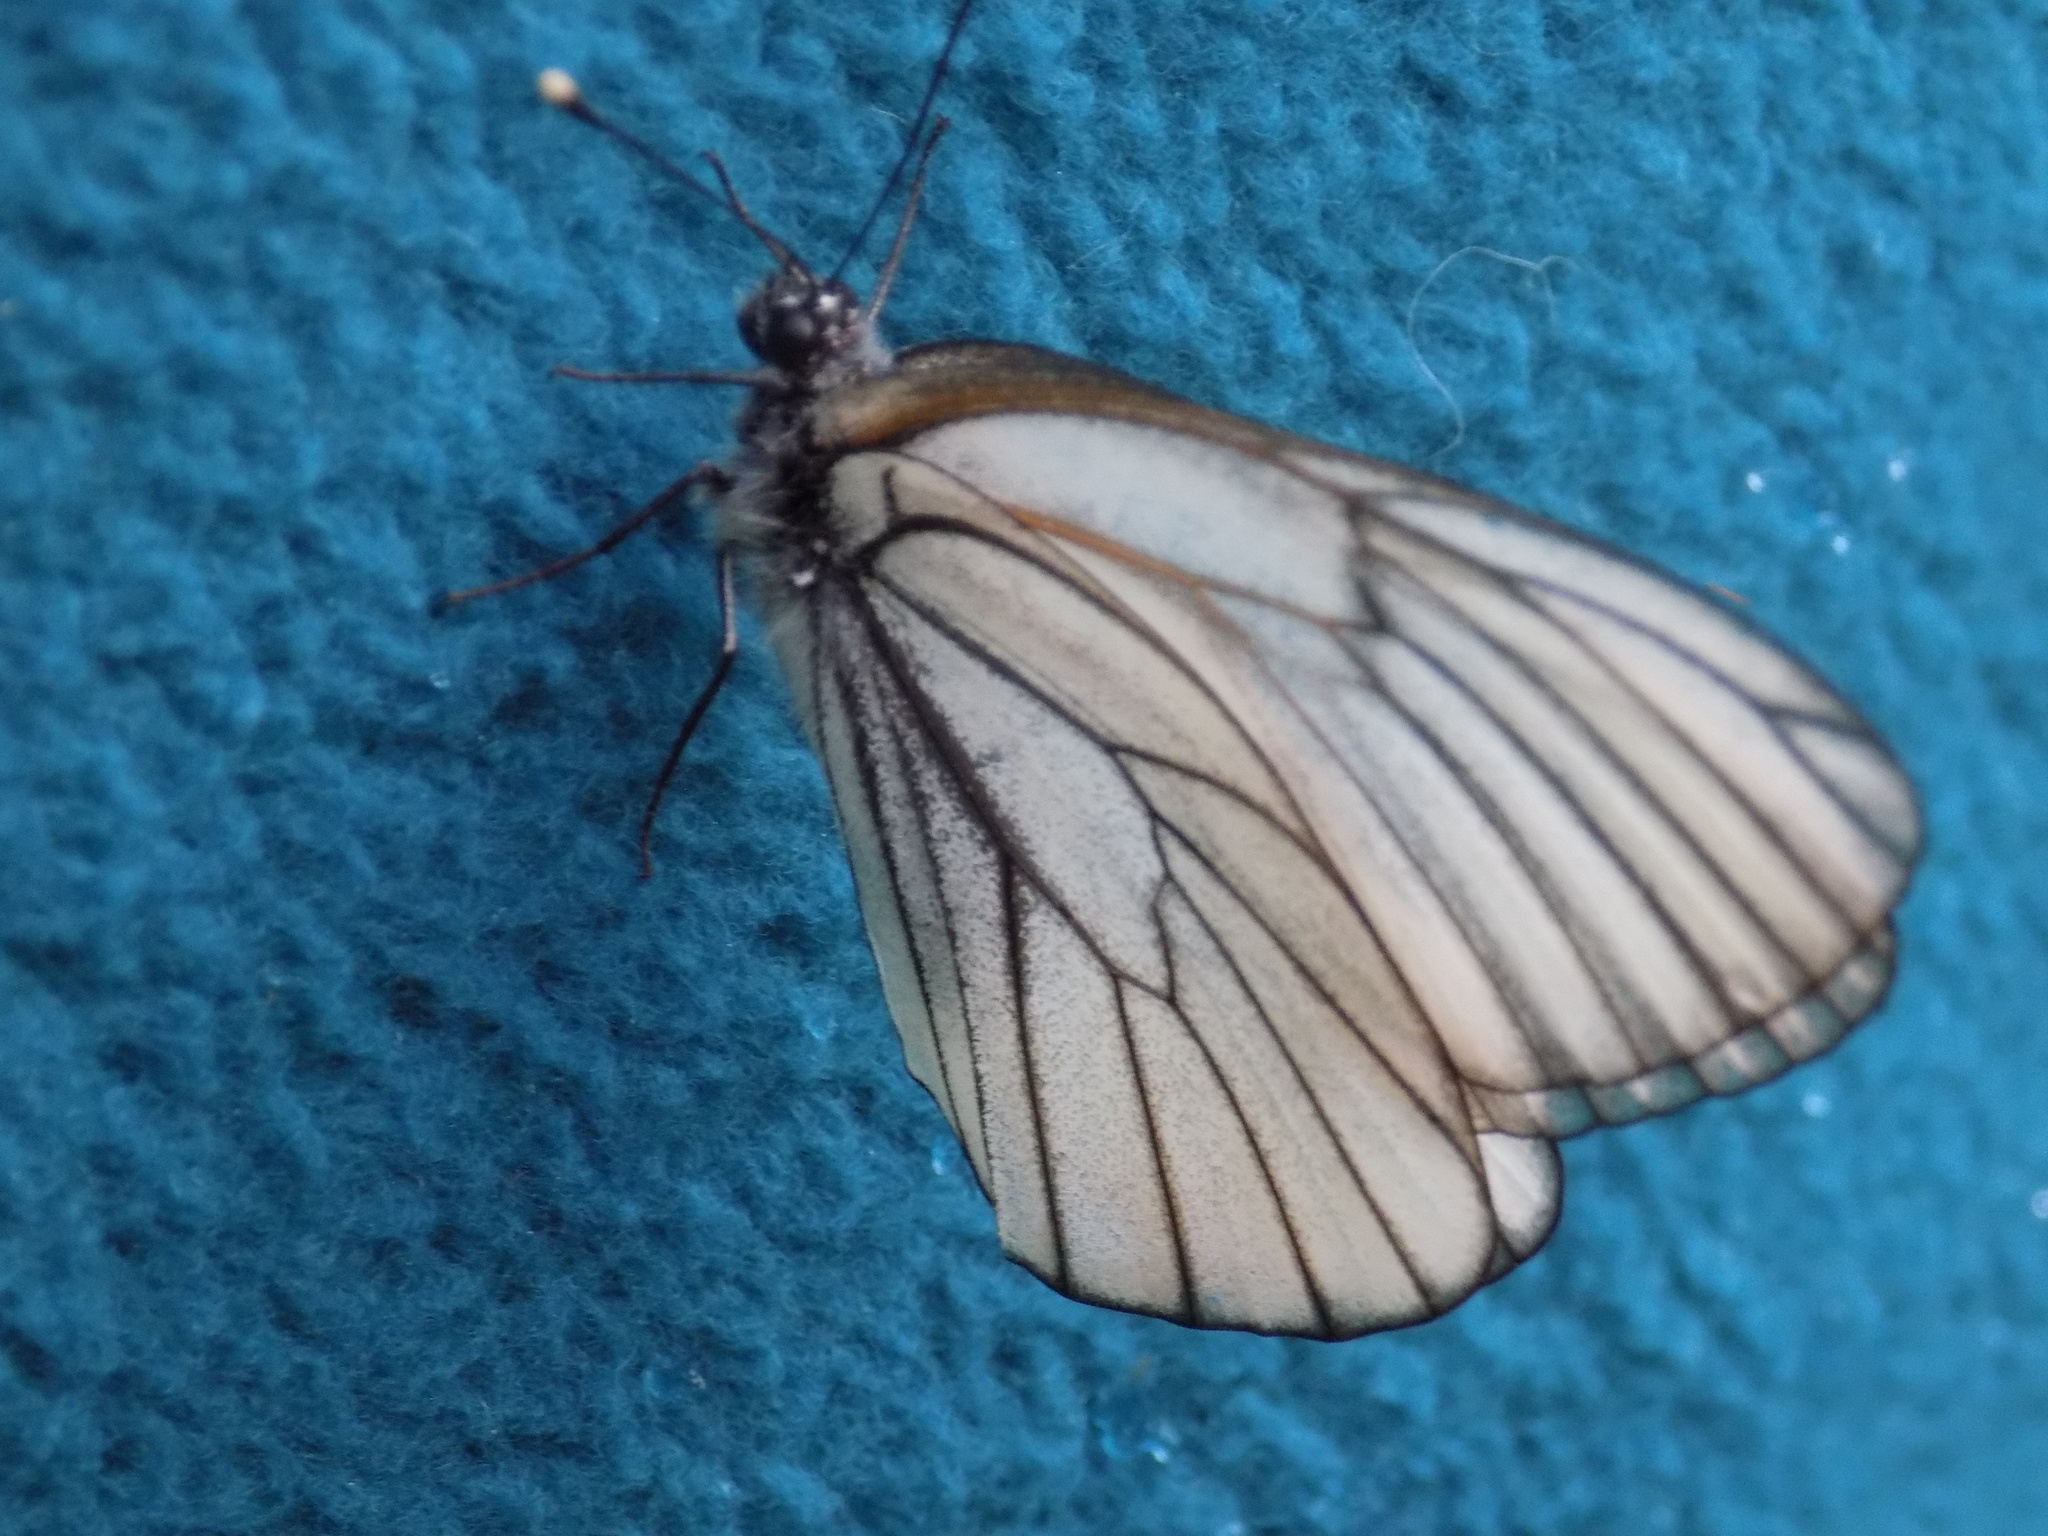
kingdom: Animalia
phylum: Arthropoda
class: Insecta
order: Lepidoptera
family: Pieridae
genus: Aporia
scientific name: Aporia crataegi
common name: Black-veined white
